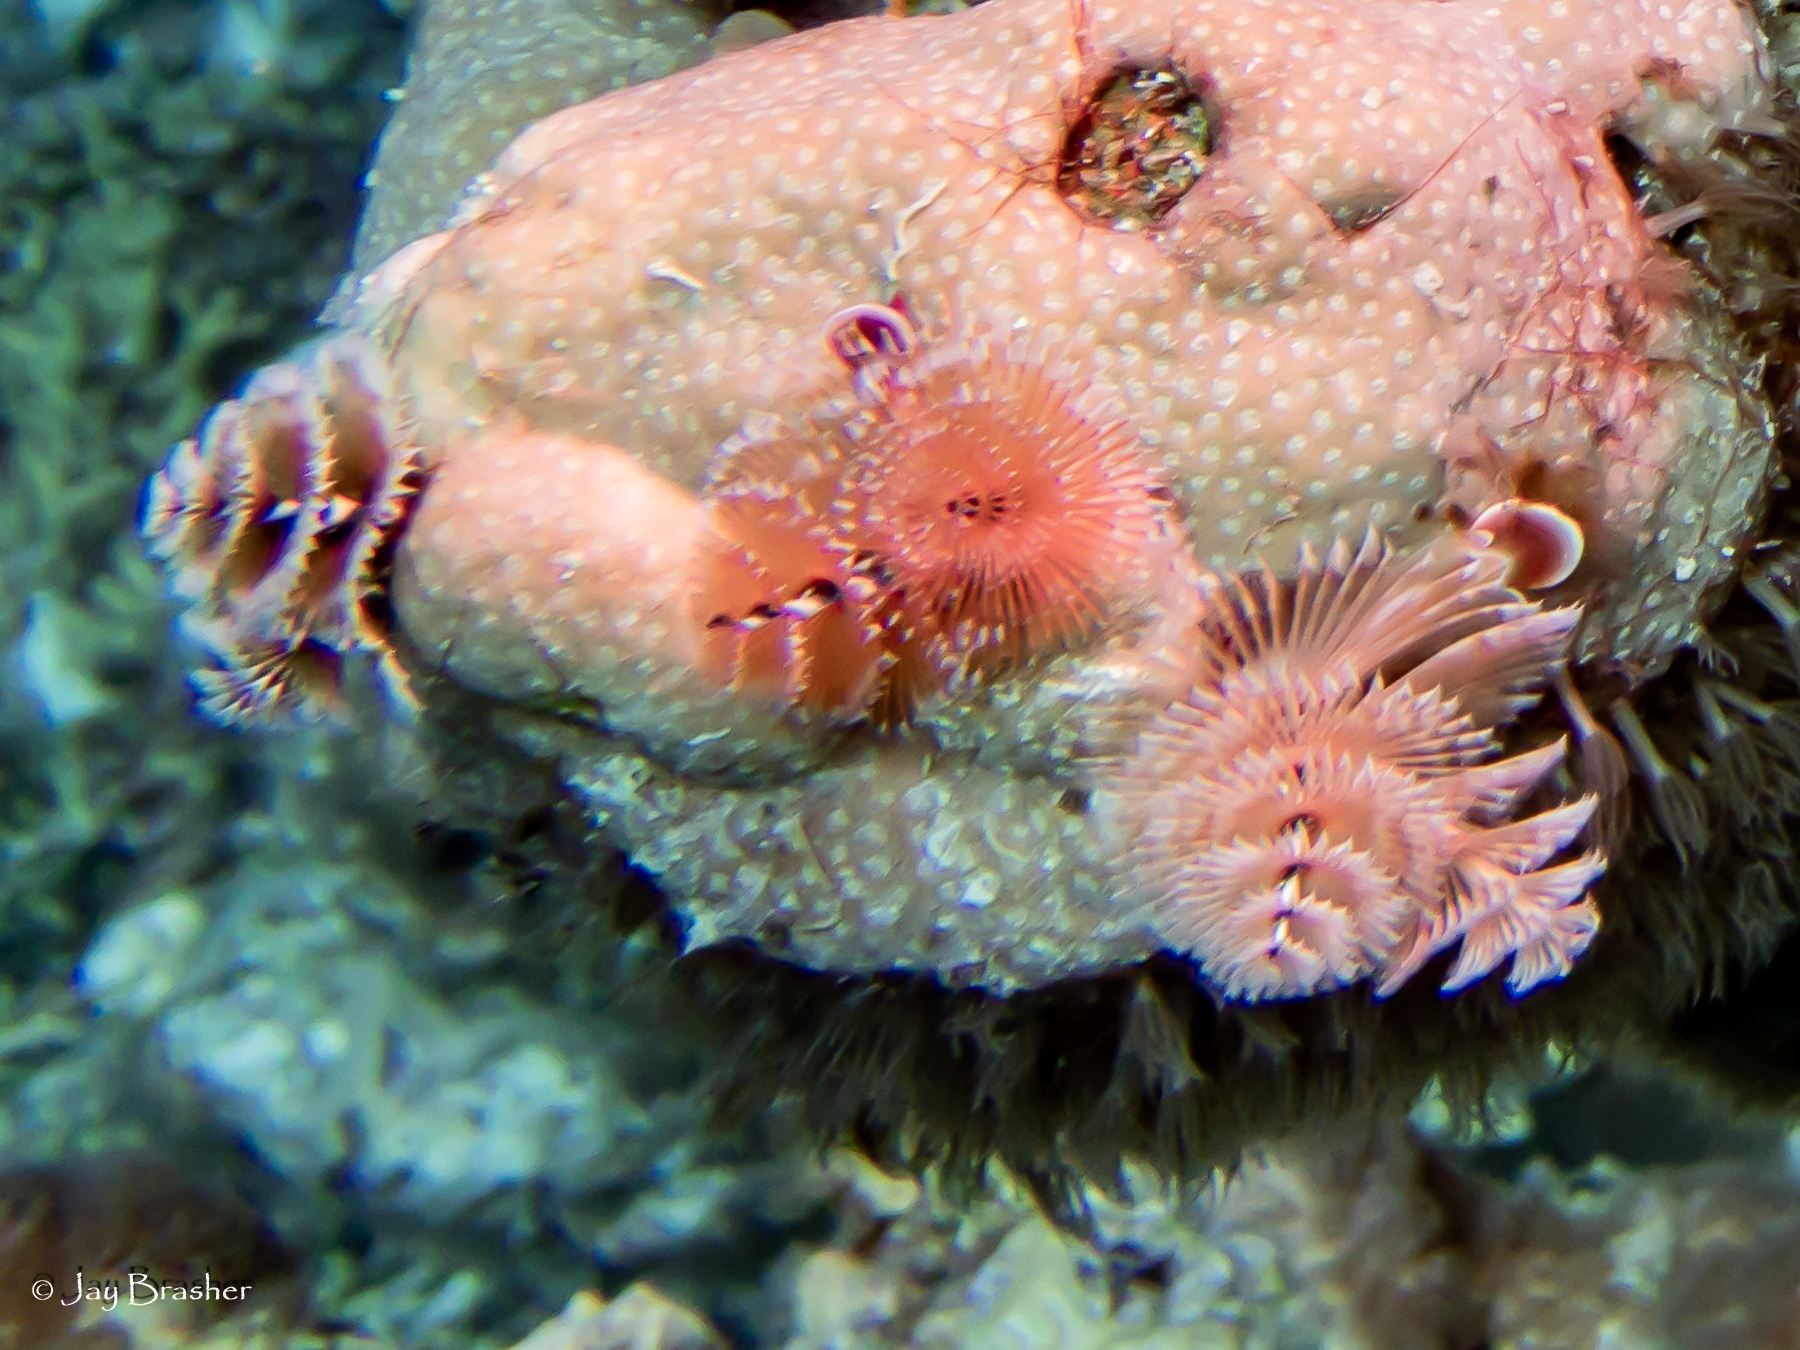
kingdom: Animalia
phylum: Annelida
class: Polychaeta
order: Sabellida
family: Serpulidae
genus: Spirobranchus
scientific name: Spirobranchus giganteus
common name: Christmas tree worm
